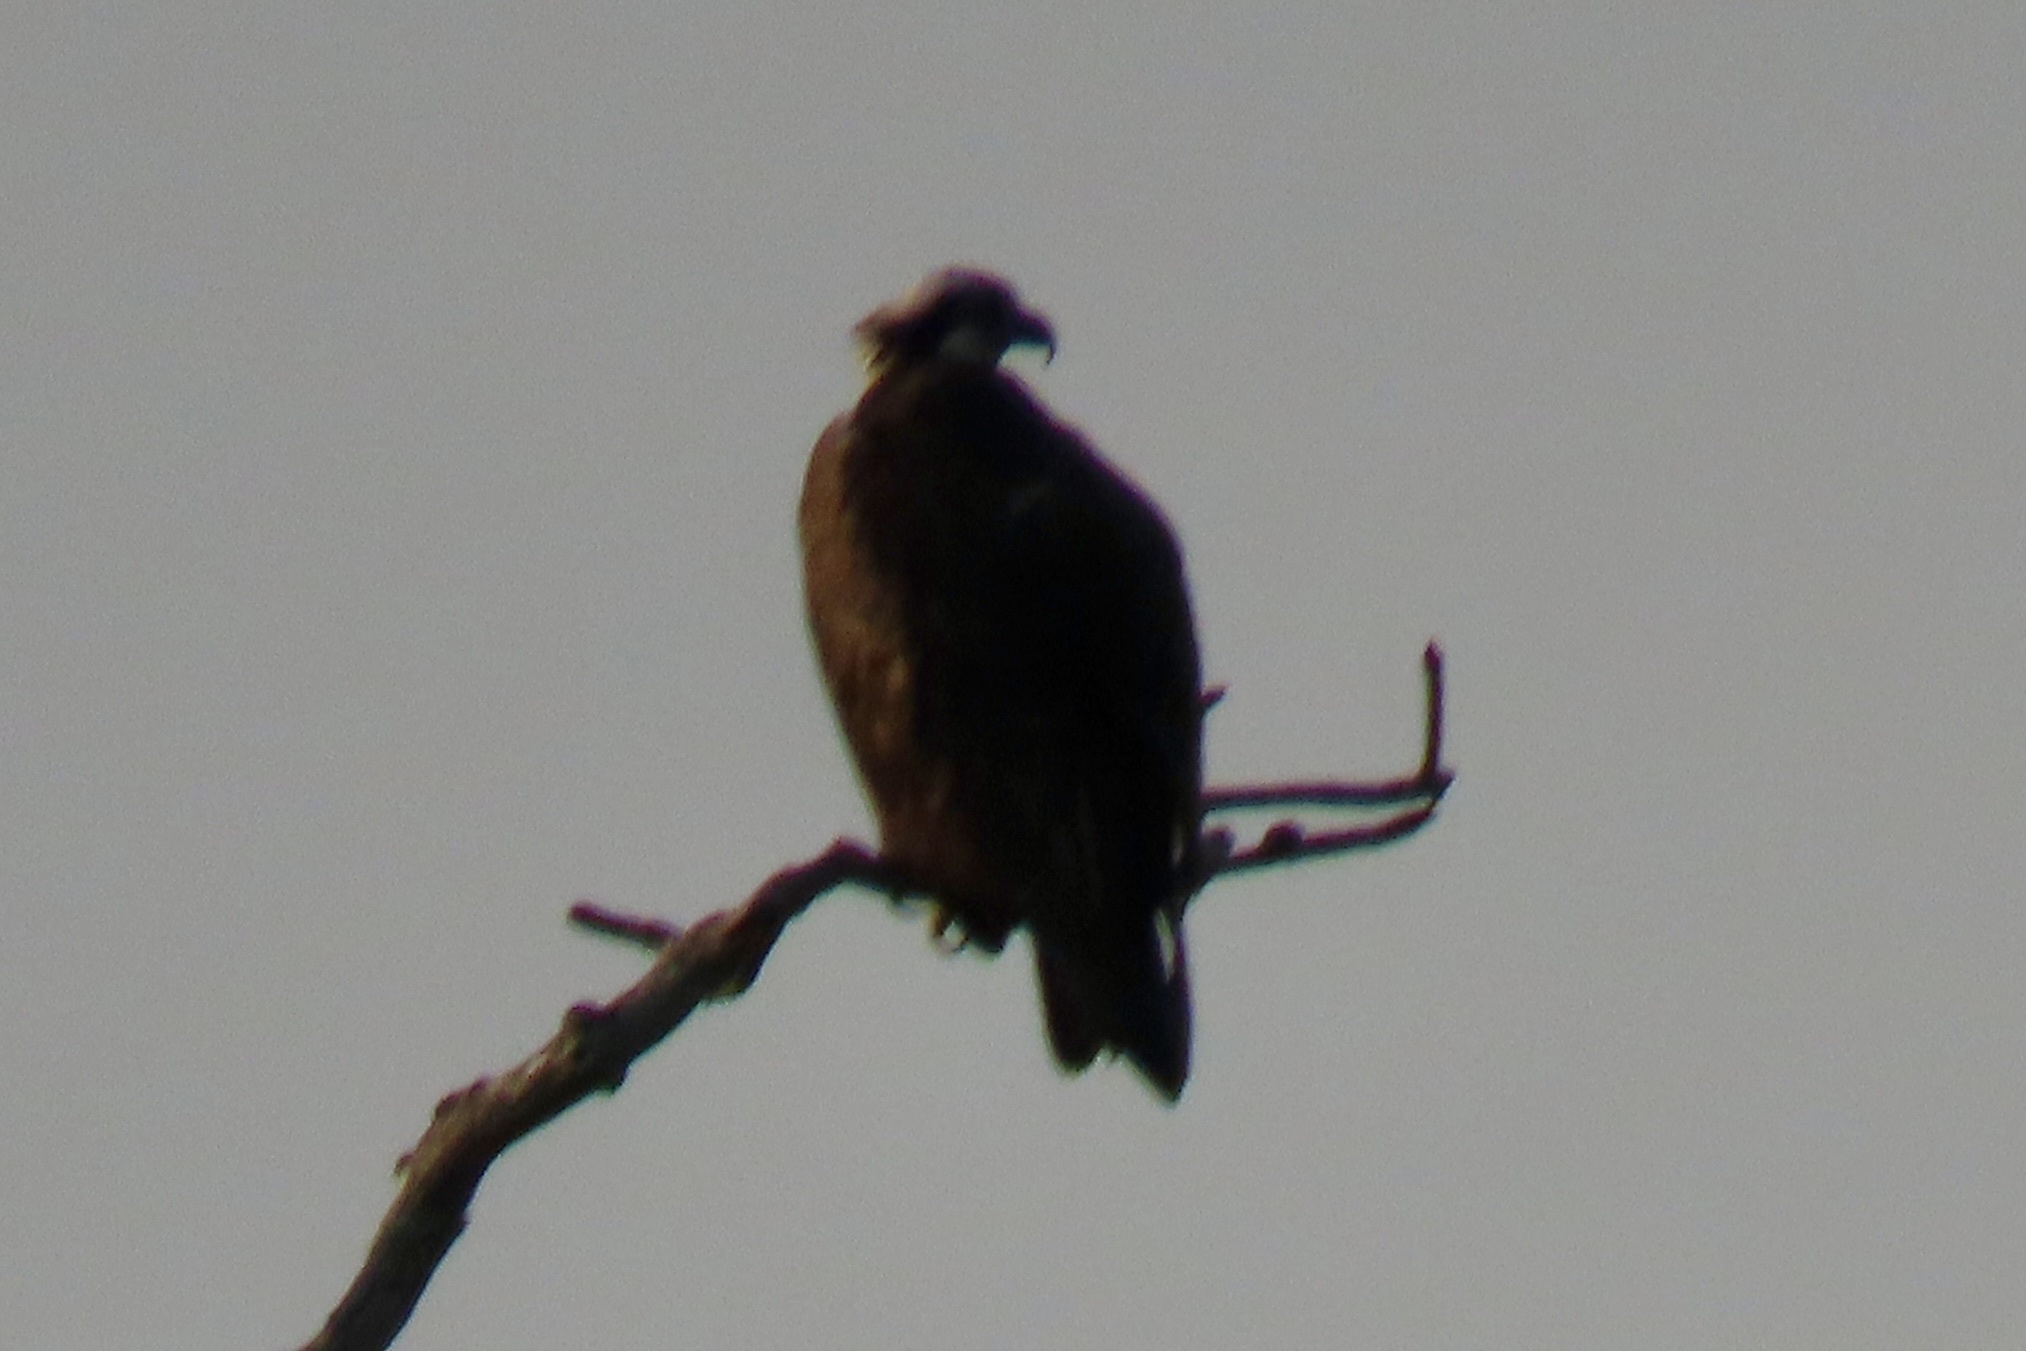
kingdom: Animalia
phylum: Chordata
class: Aves
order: Accipitriformes
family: Pandionidae
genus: Pandion
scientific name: Pandion haliaetus
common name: Osprey
